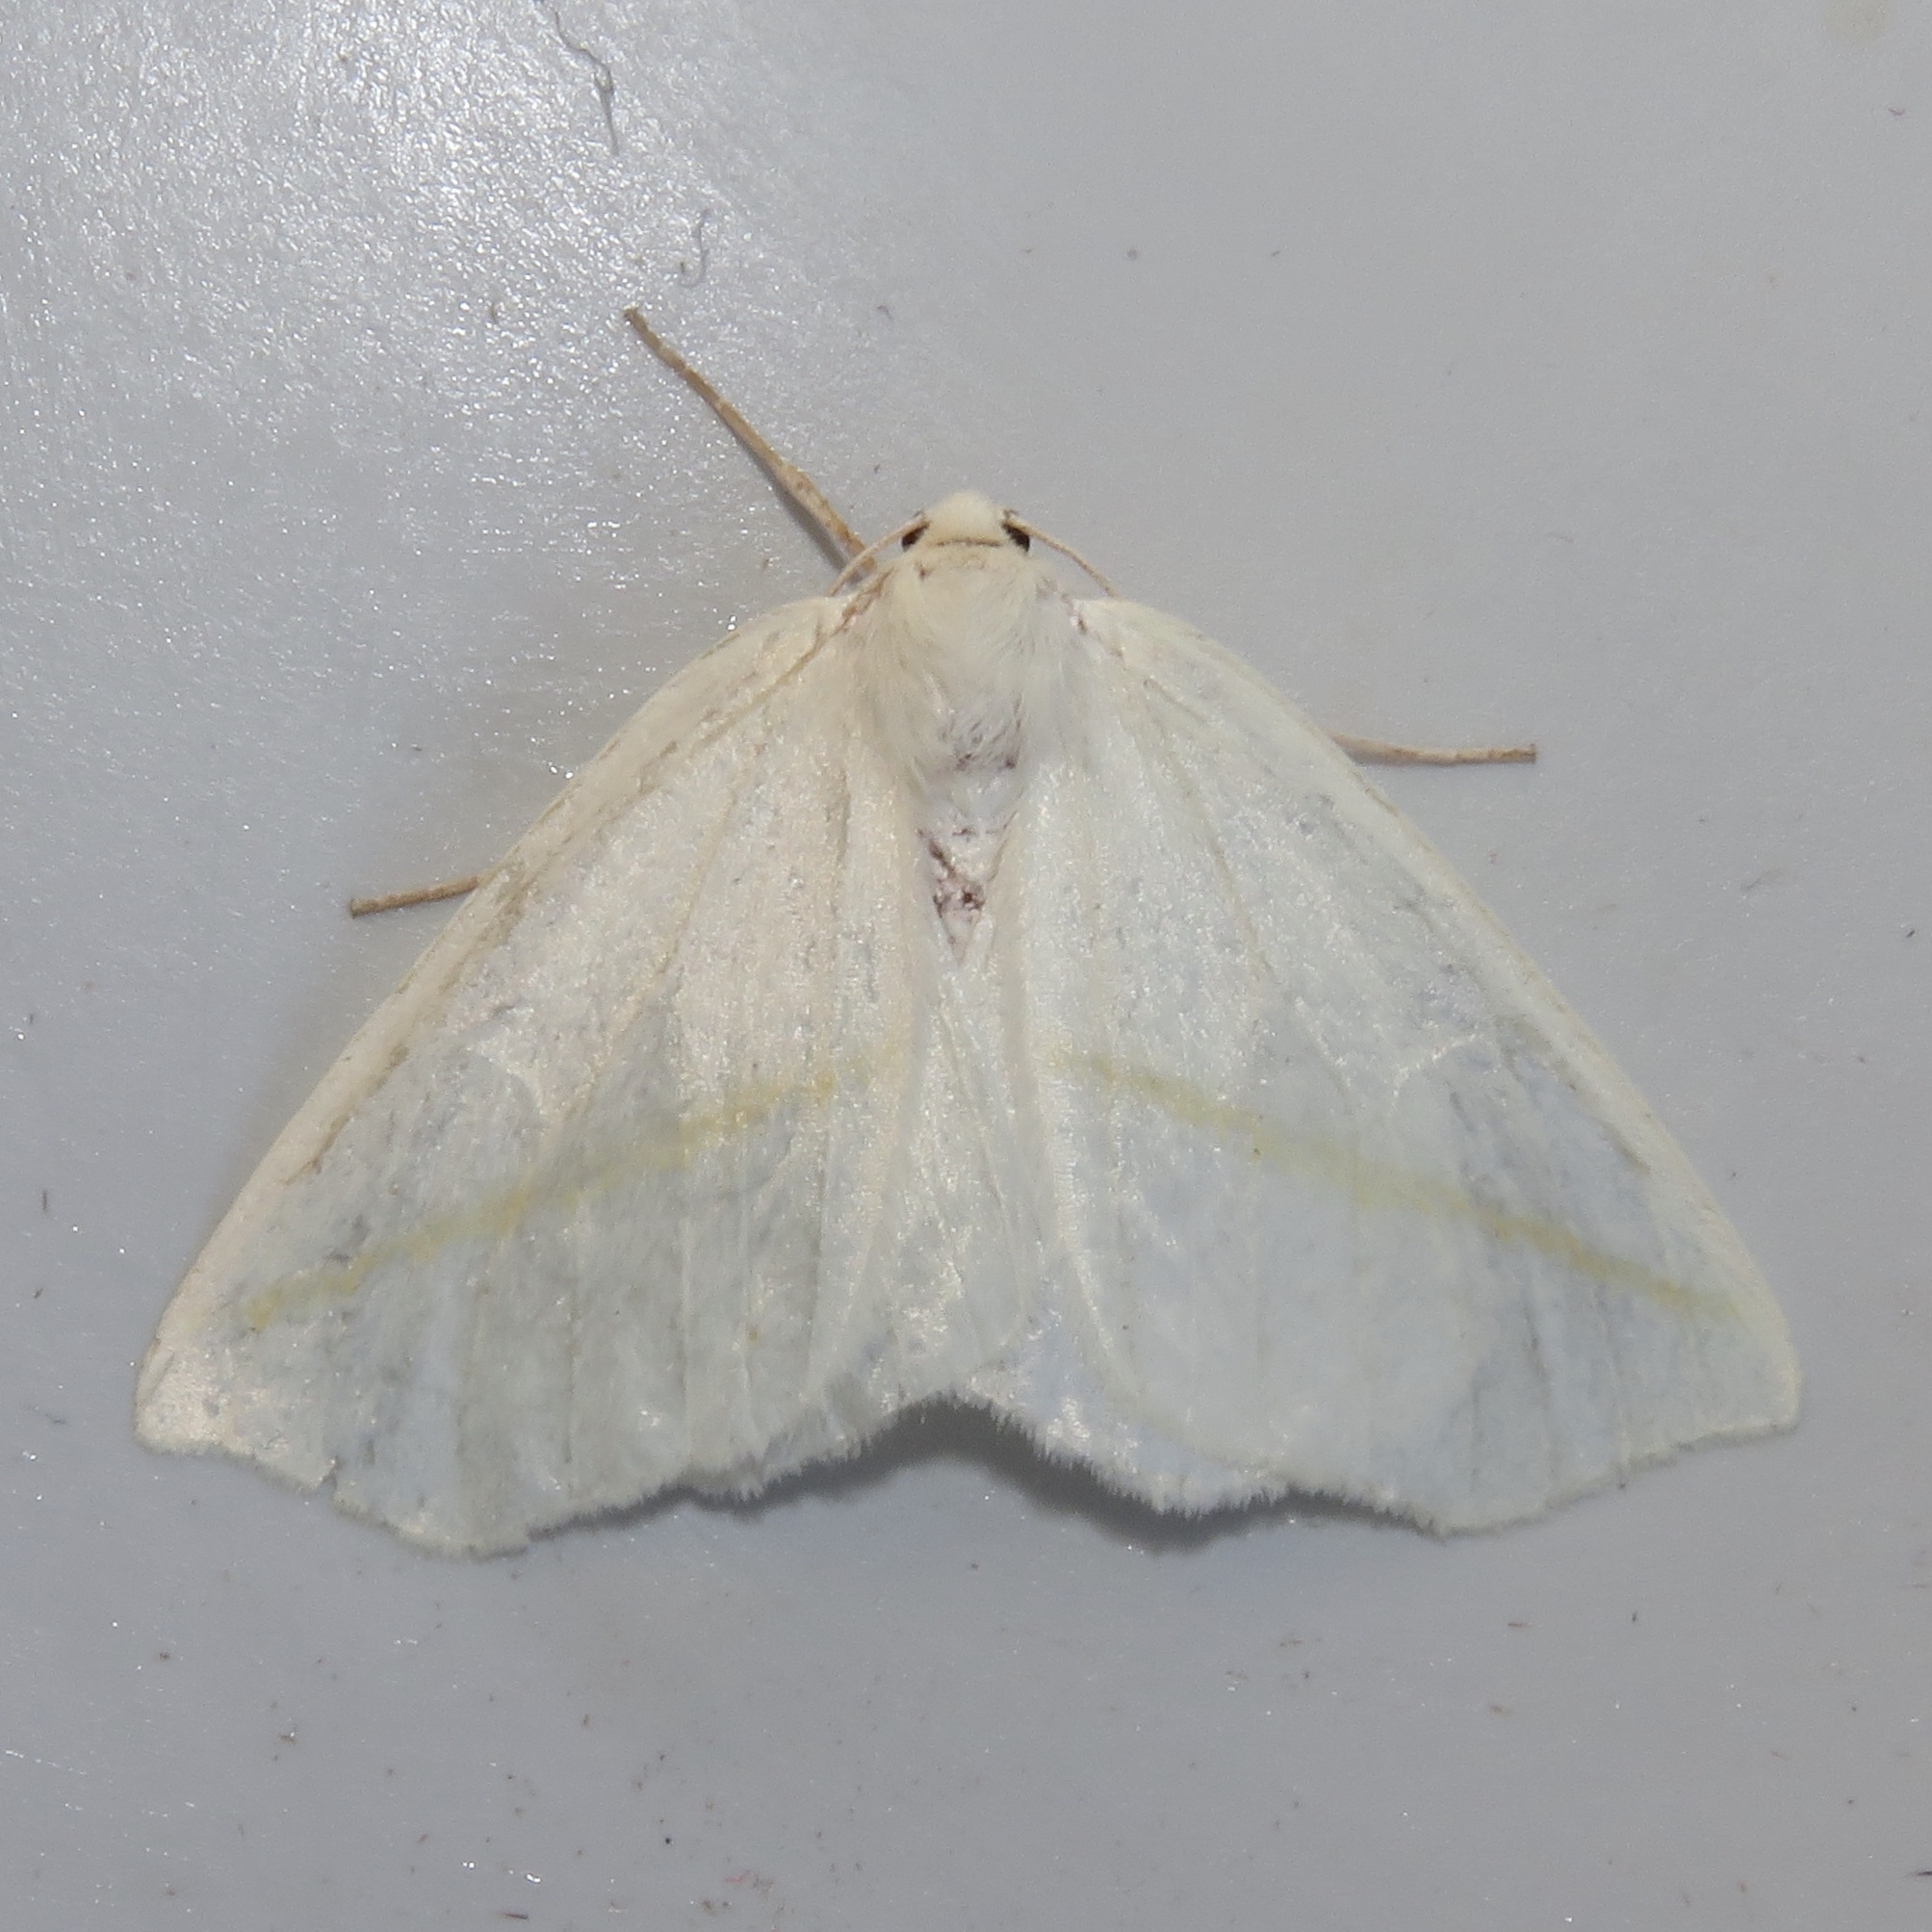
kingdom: Animalia
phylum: Arthropoda
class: Insecta
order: Lepidoptera
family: Geometridae
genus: Tetracis
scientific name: Tetracis cachexiata
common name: White slant-line
